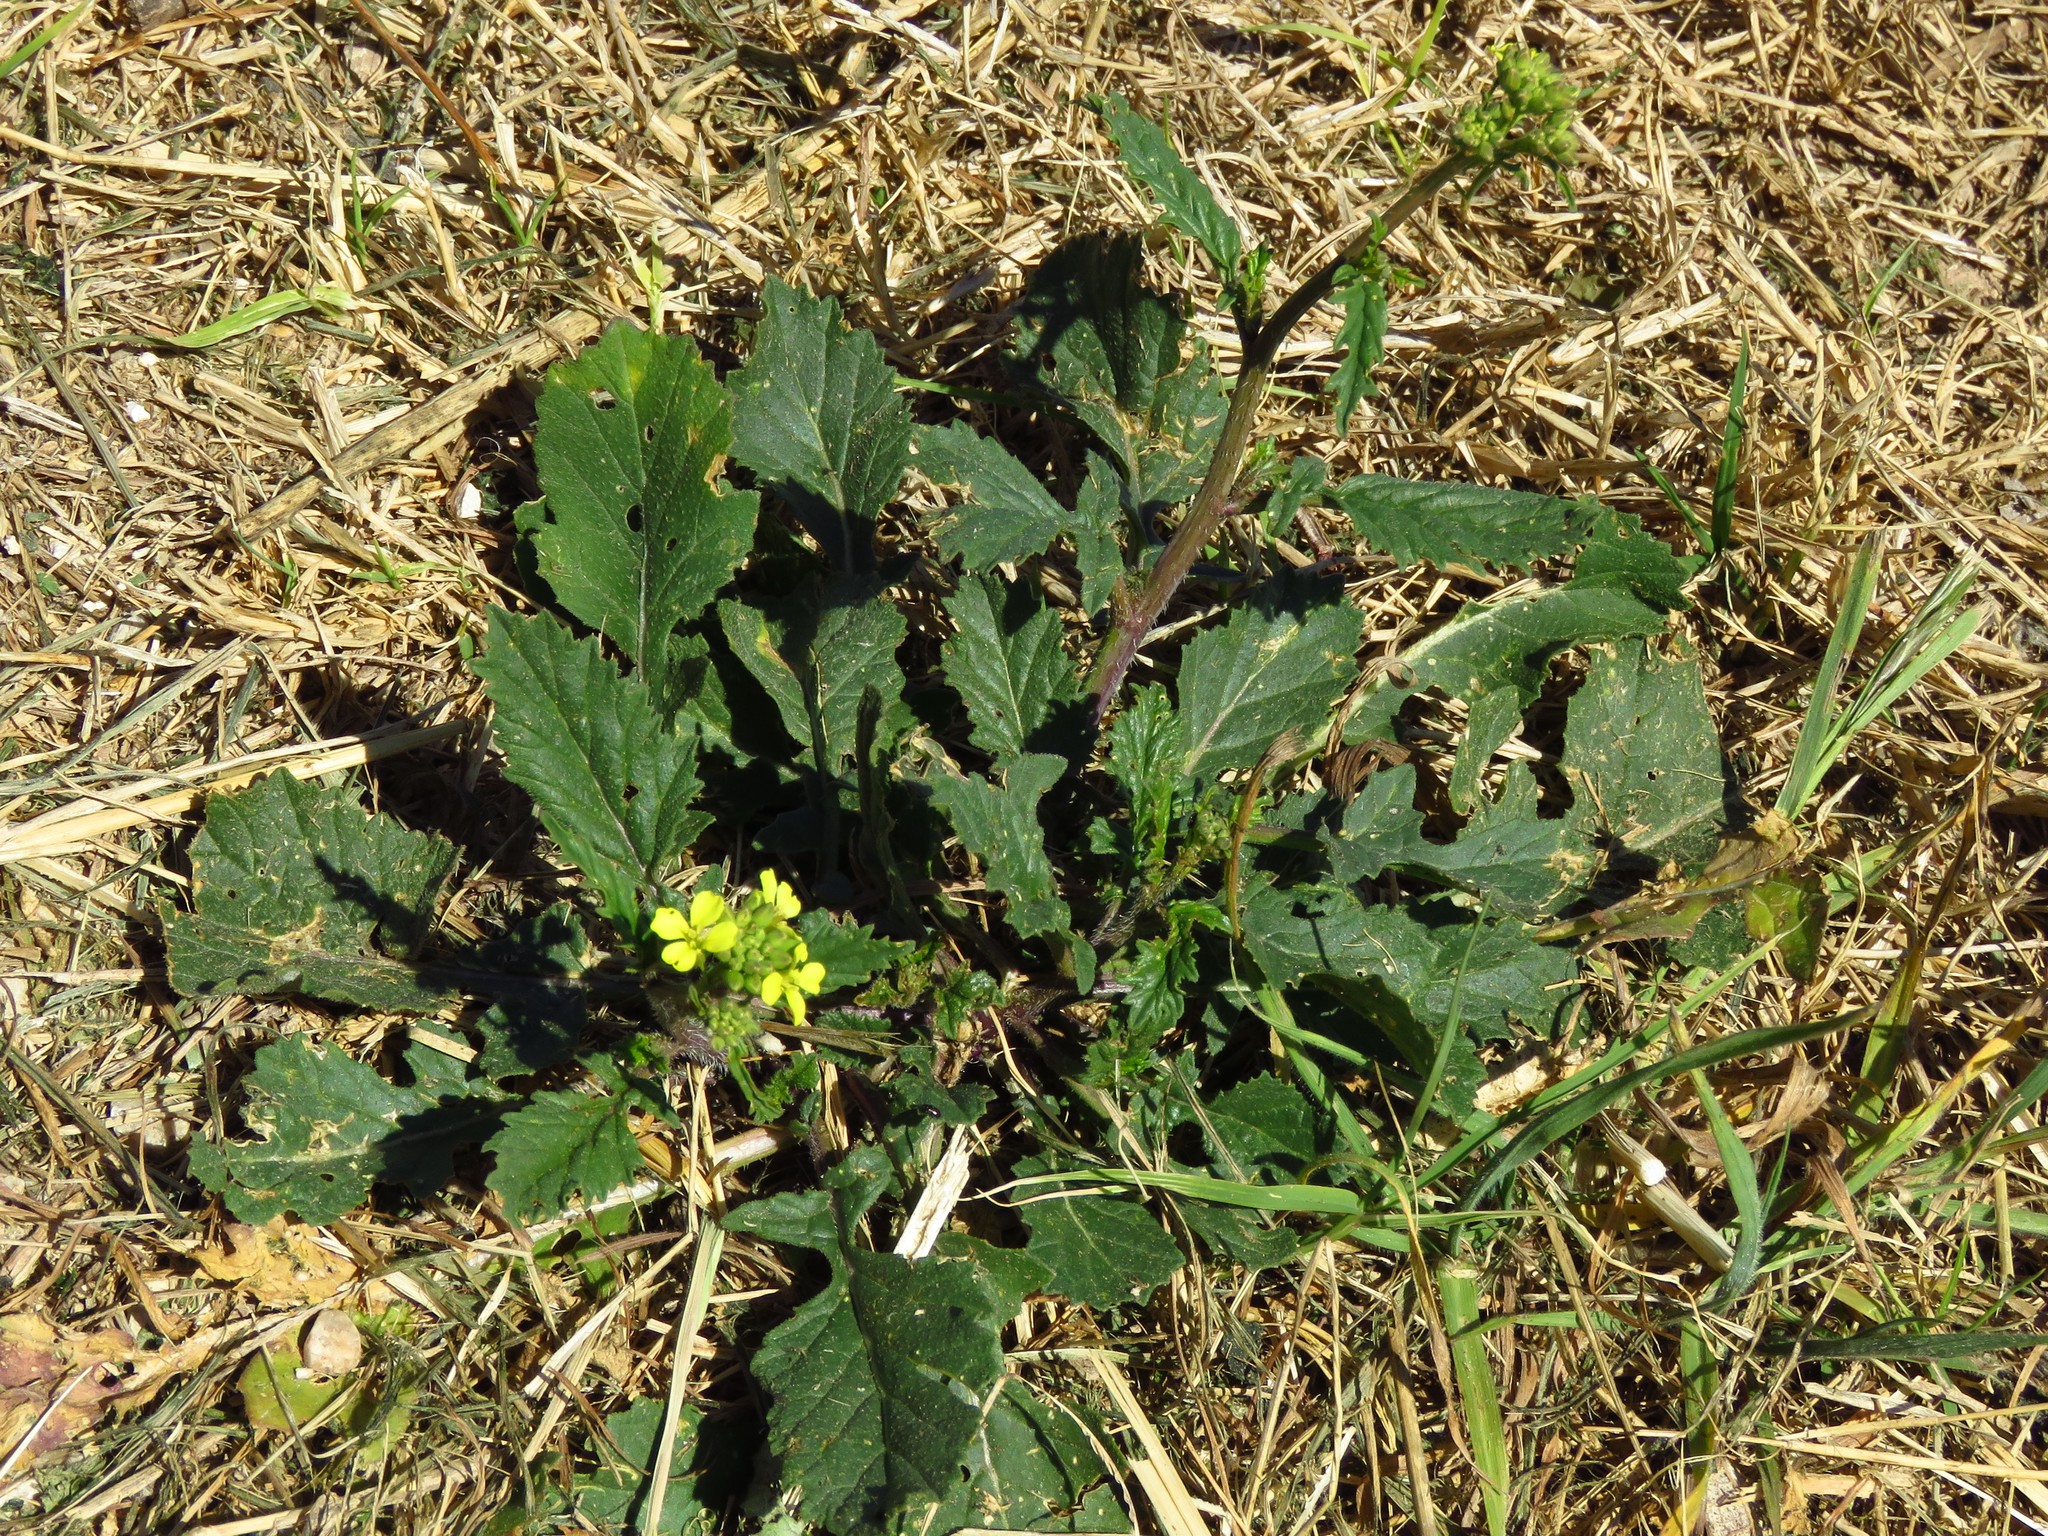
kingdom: Plantae
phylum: Tracheophyta
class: Magnoliopsida
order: Brassicales
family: Brassicaceae
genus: Rapistrum
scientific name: Rapistrum rugosum
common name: Annual bastardcabbage
